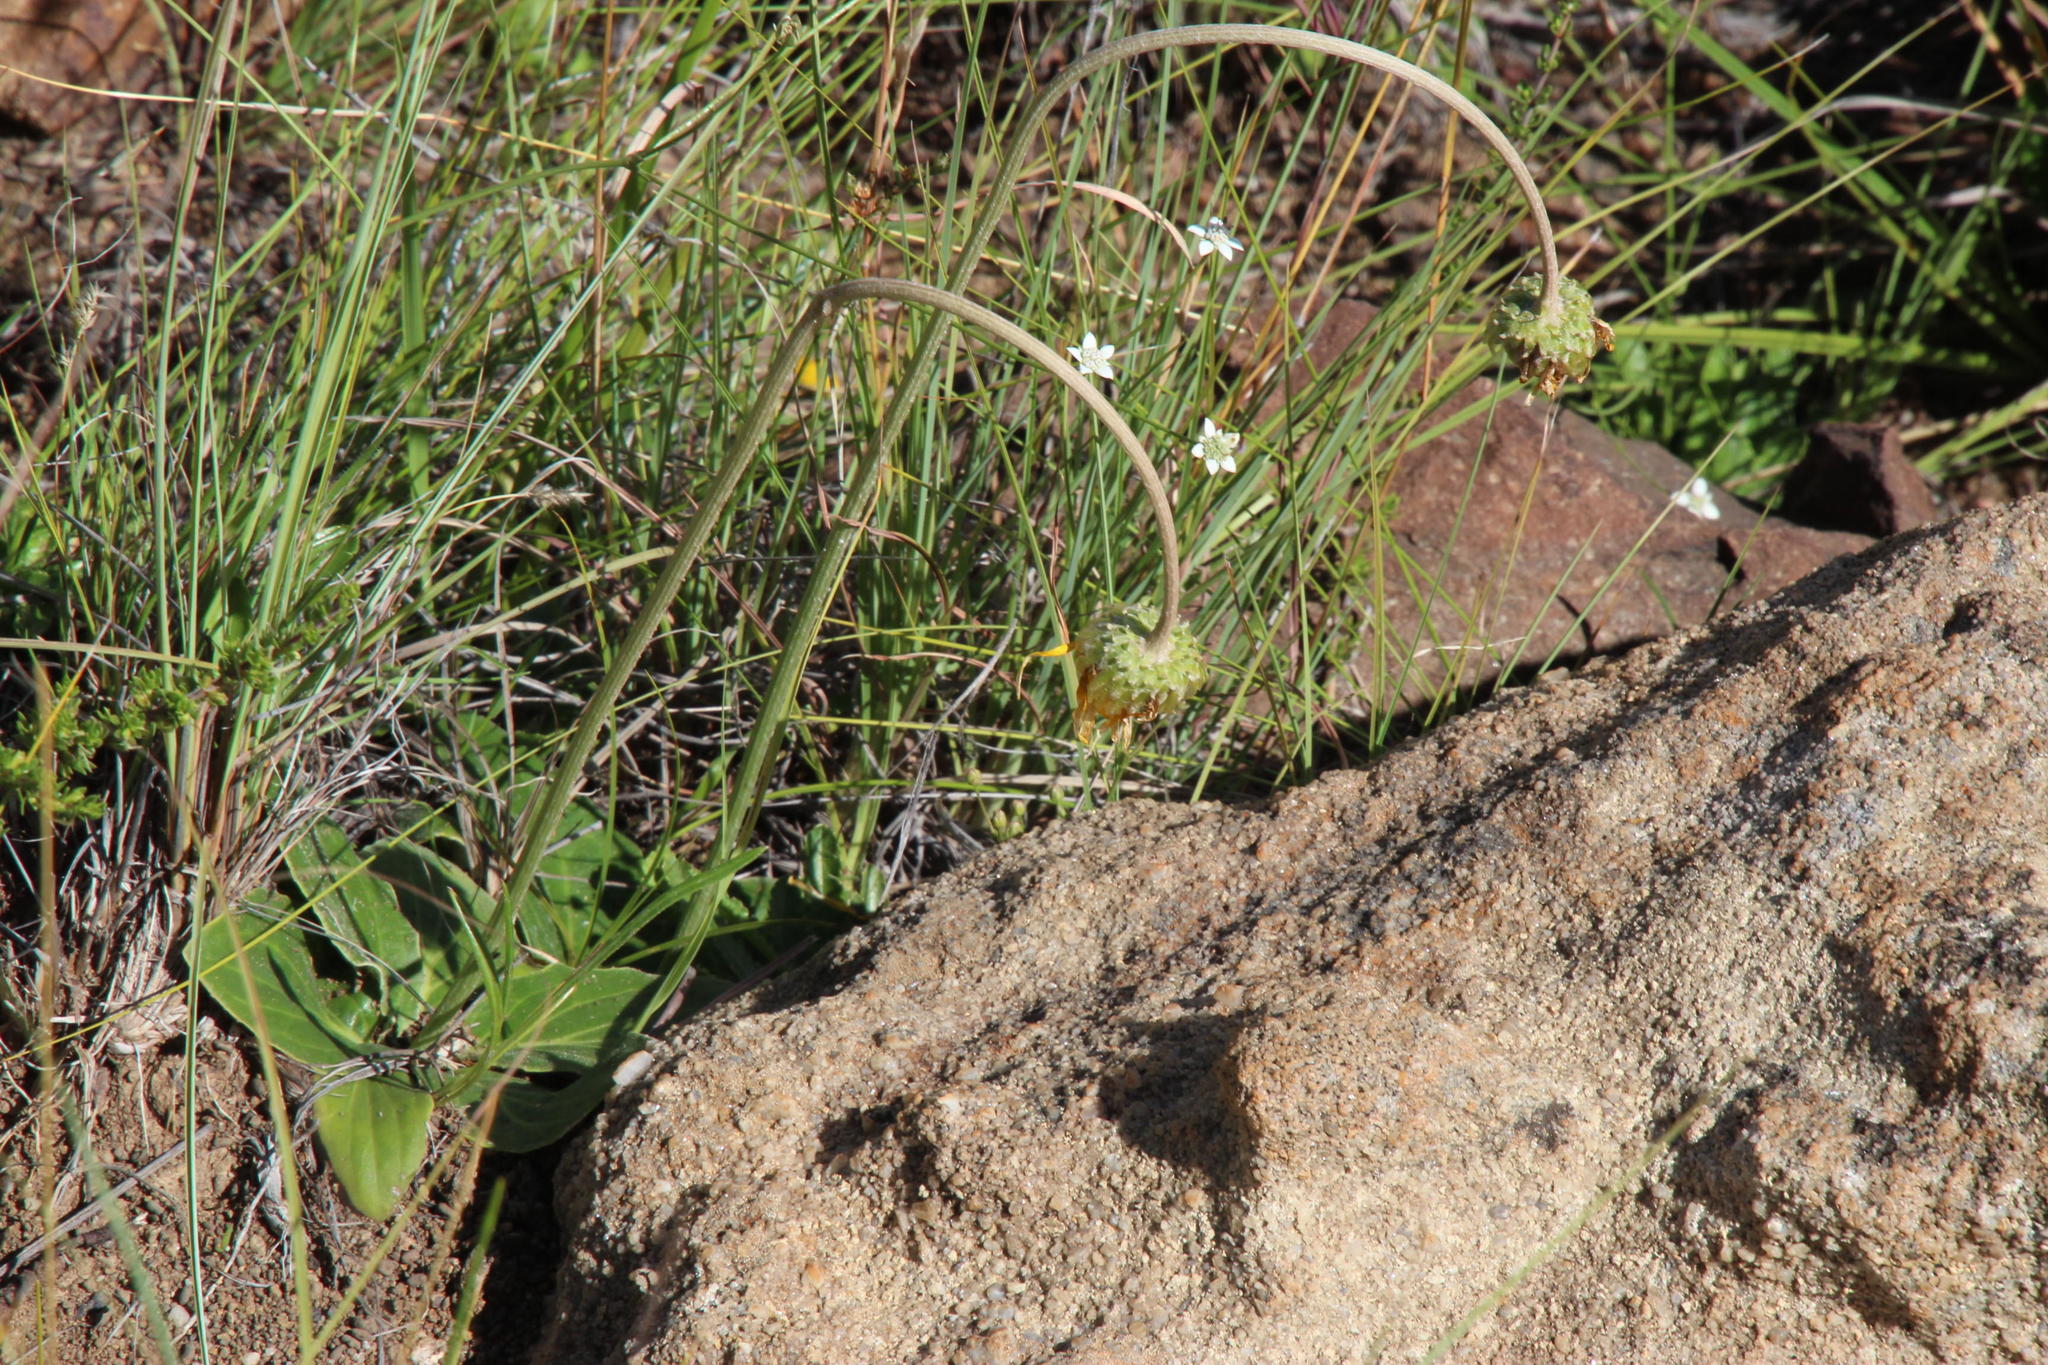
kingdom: Plantae
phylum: Tracheophyta
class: Magnoliopsida
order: Apiales
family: Apiaceae
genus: Alepidea
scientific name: Alepidea serrata
